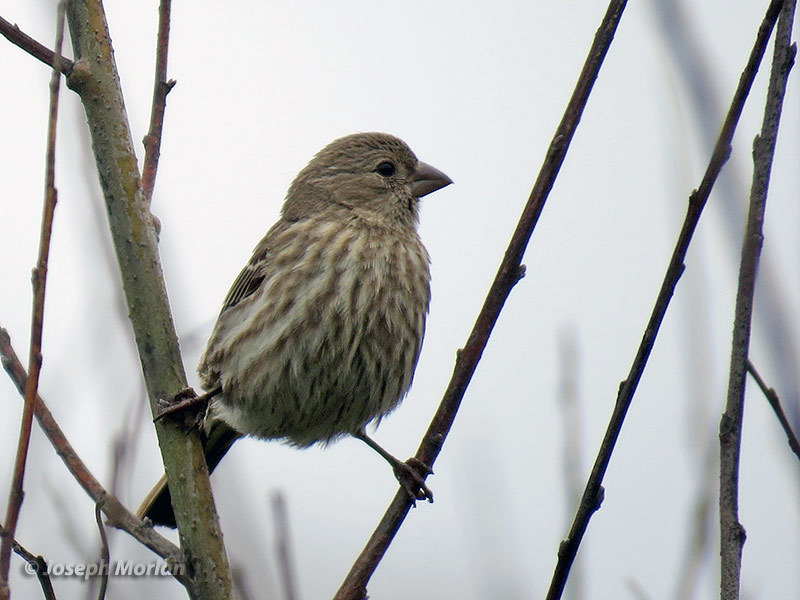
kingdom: Animalia
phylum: Chordata
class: Aves
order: Passeriformes
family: Fringillidae
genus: Haemorhous
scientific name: Haemorhous mexicanus
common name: House finch
